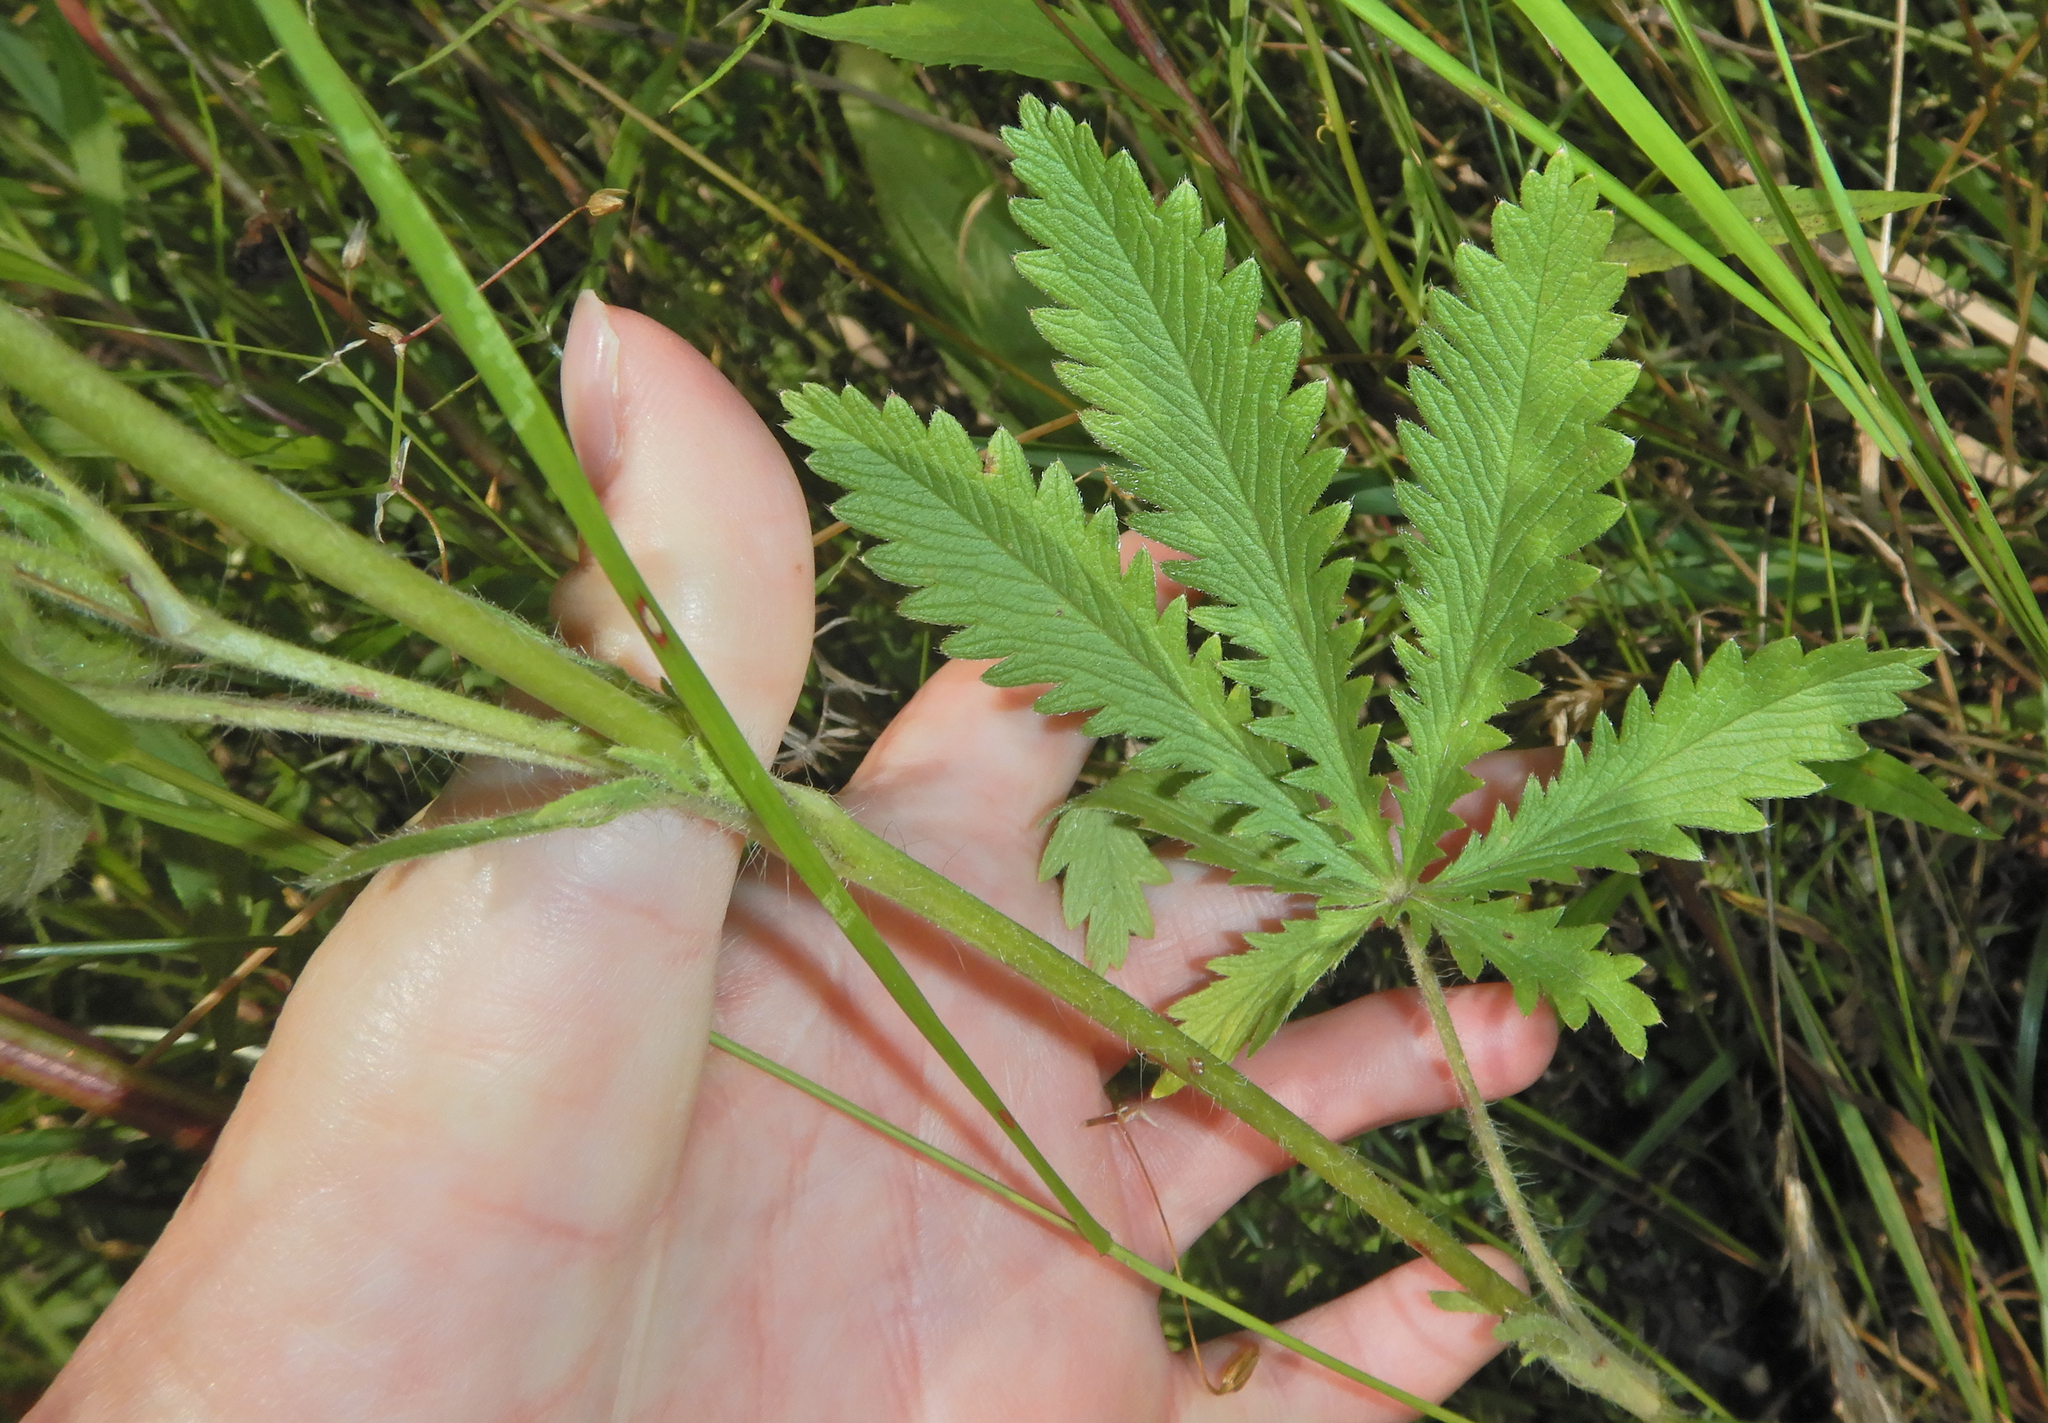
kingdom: Plantae
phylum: Tracheophyta
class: Magnoliopsida
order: Rosales
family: Rosaceae
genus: Potentilla
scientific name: Potentilla recta
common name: Sulphur cinquefoil
